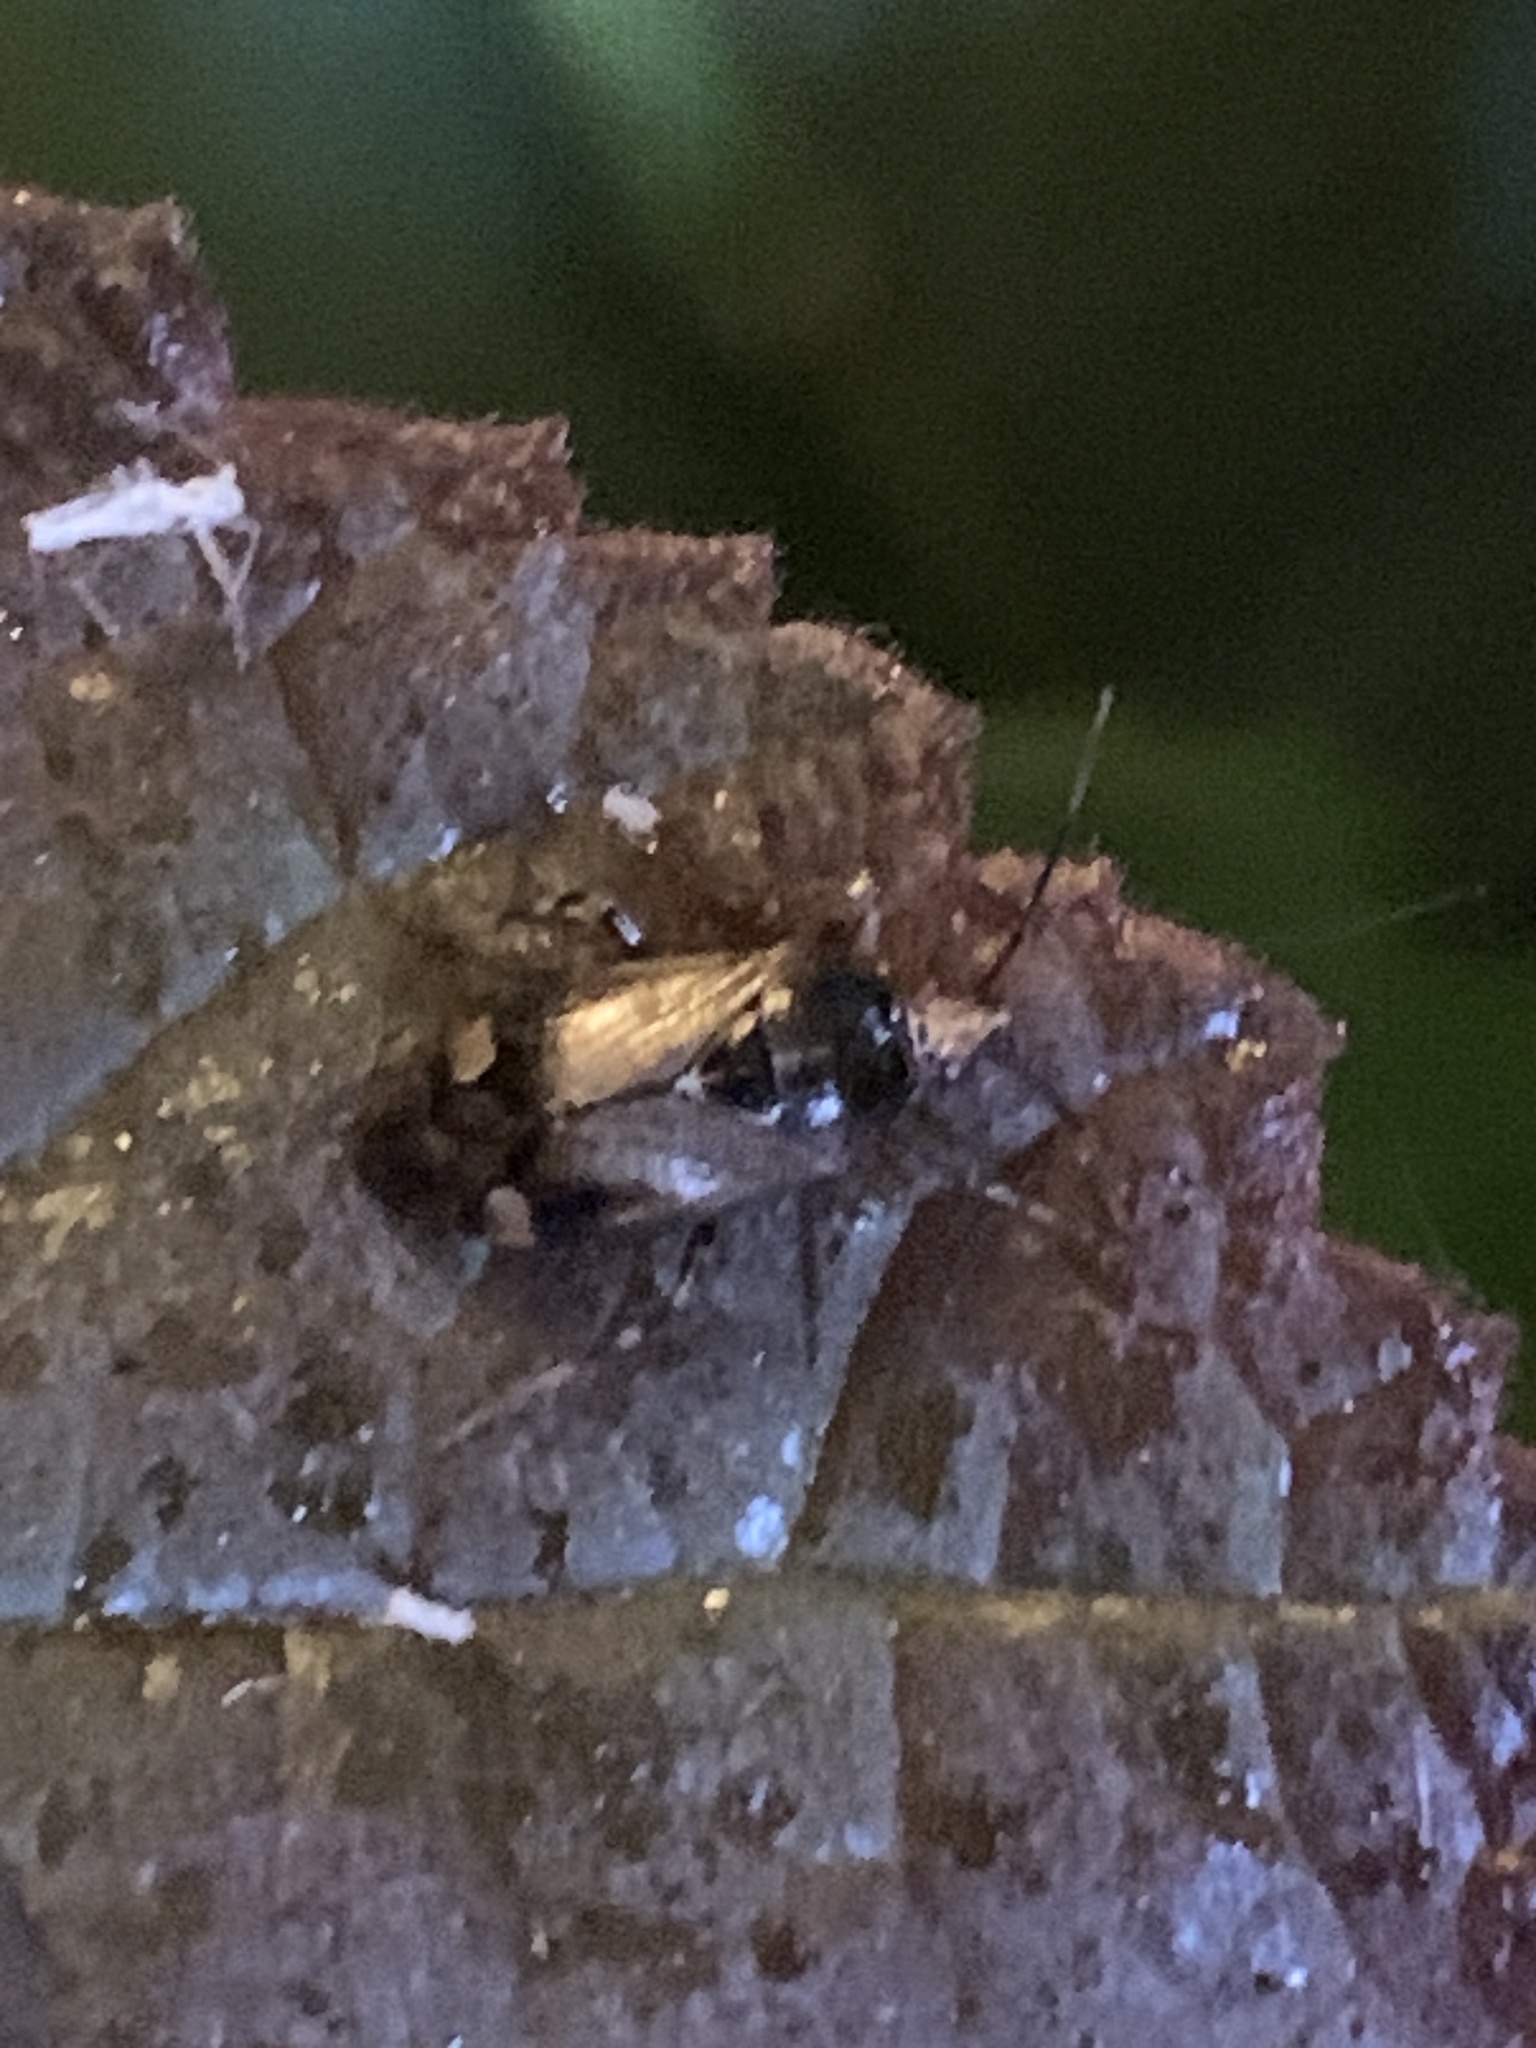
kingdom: Animalia
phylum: Arthropoda
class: Insecta
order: Hemiptera
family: Miridae
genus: Deraeocoris
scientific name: Deraeocoris flavilinea
